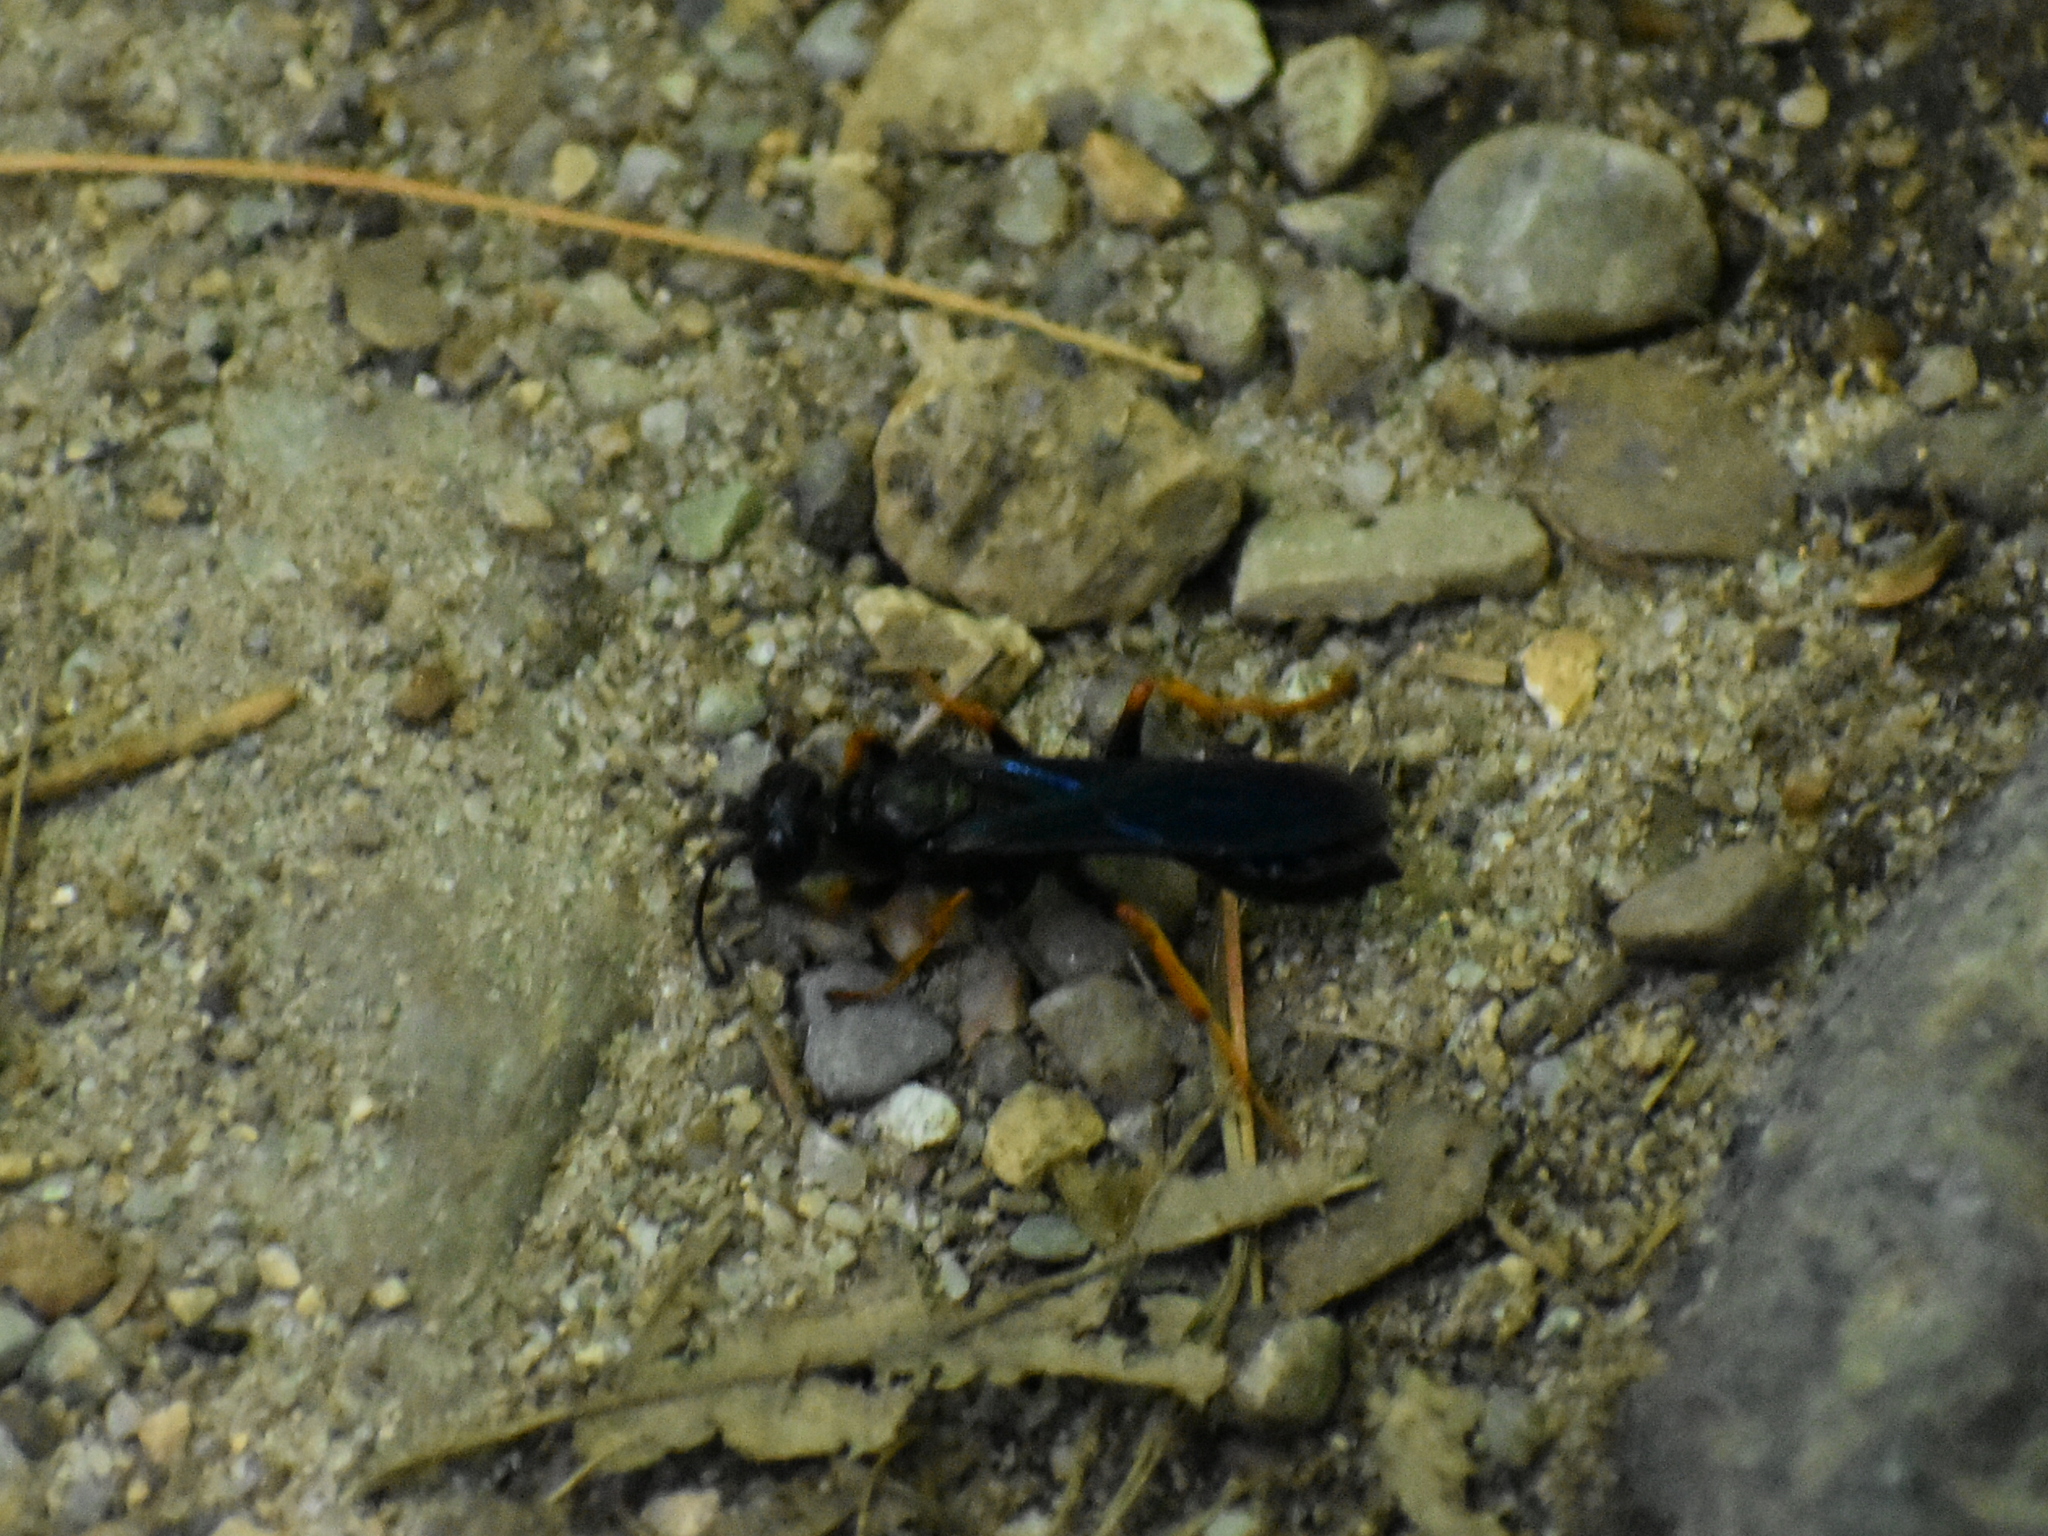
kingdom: Animalia
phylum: Arthropoda
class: Insecta
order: Hymenoptera
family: Sphecidae
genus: Podium
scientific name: Podium luctuosum
